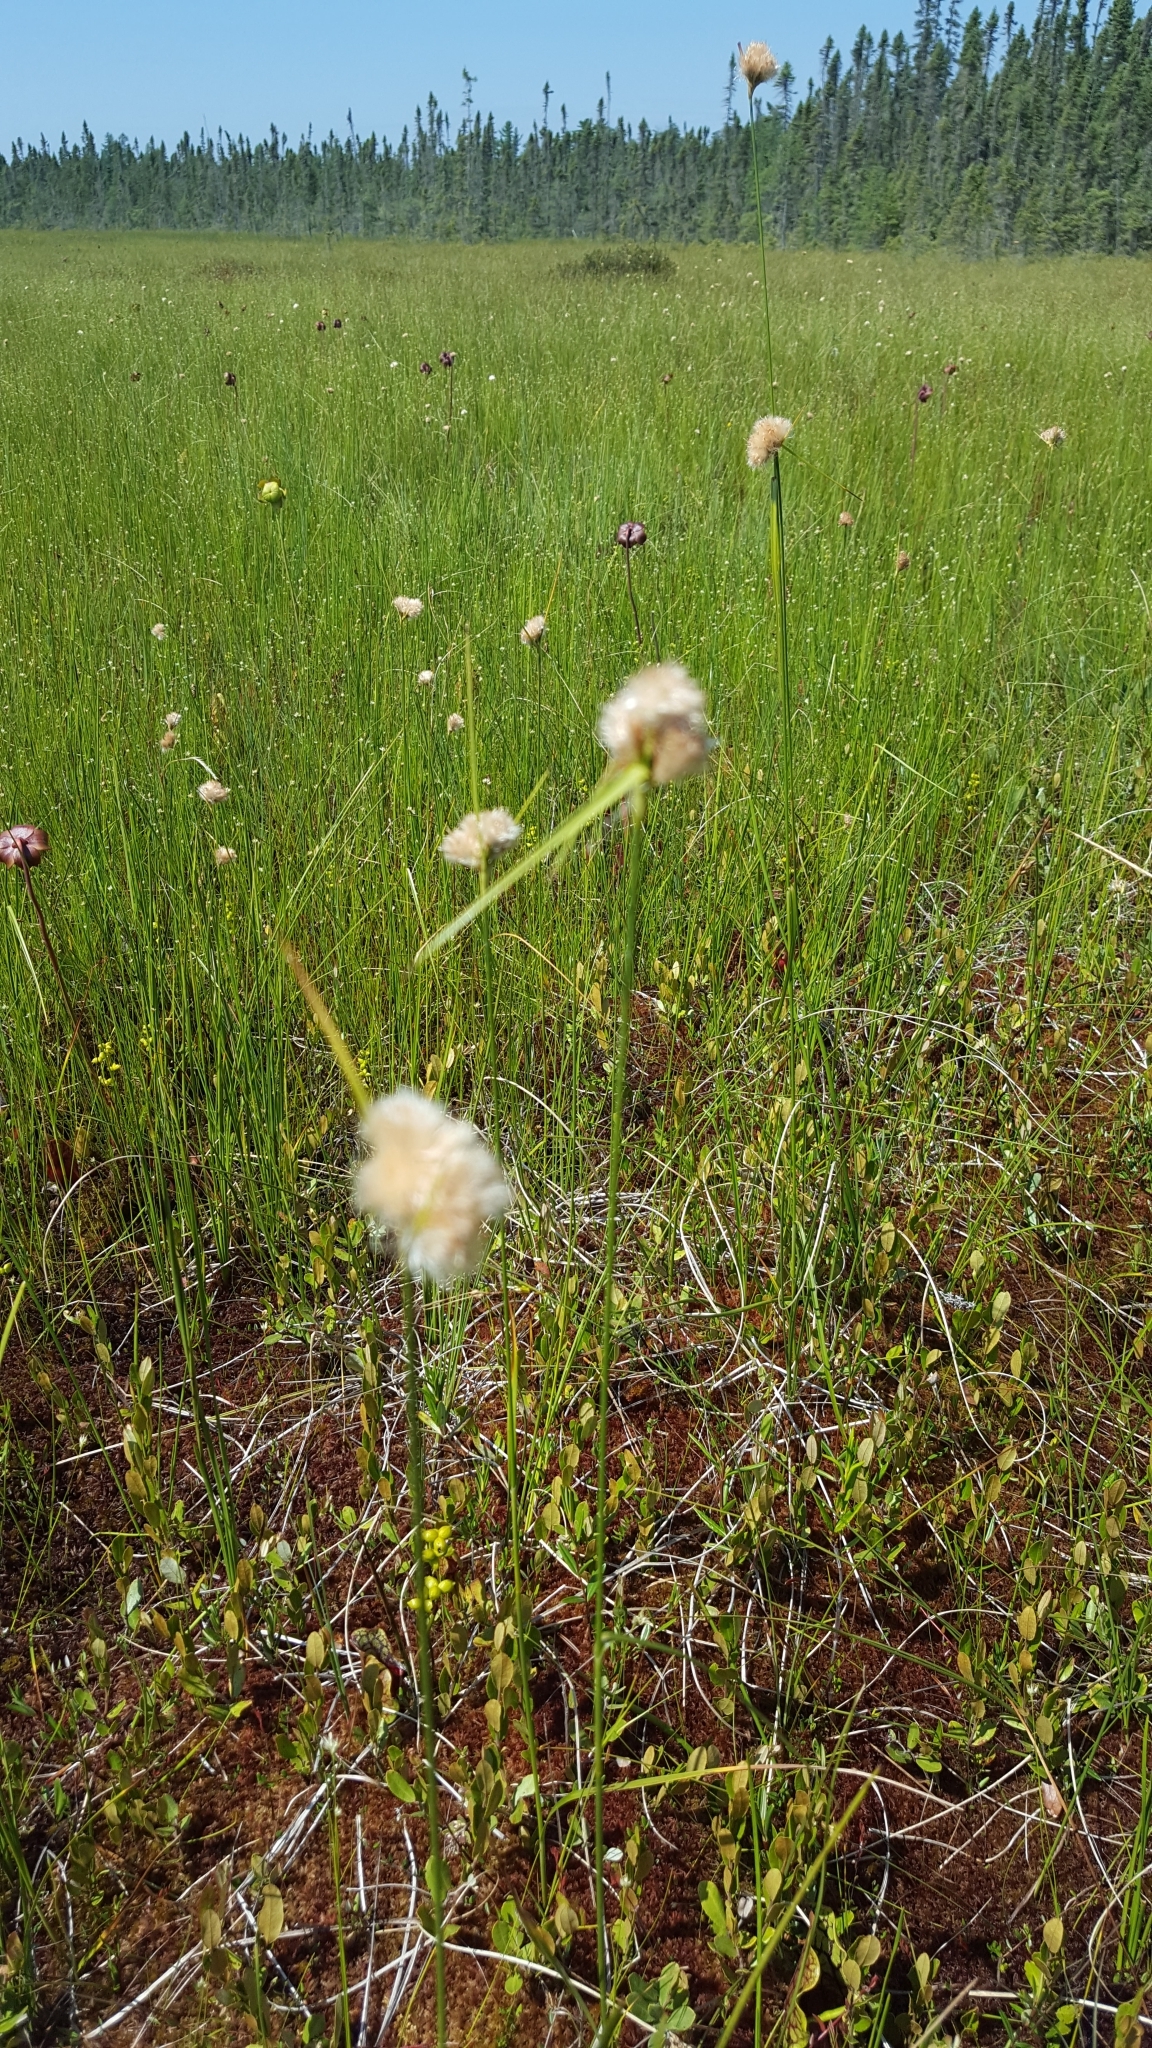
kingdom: Plantae
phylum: Tracheophyta
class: Liliopsida
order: Poales
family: Cyperaceae
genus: Eriophorum
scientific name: Eriophorum virginicum
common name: Tawny cottongrass
